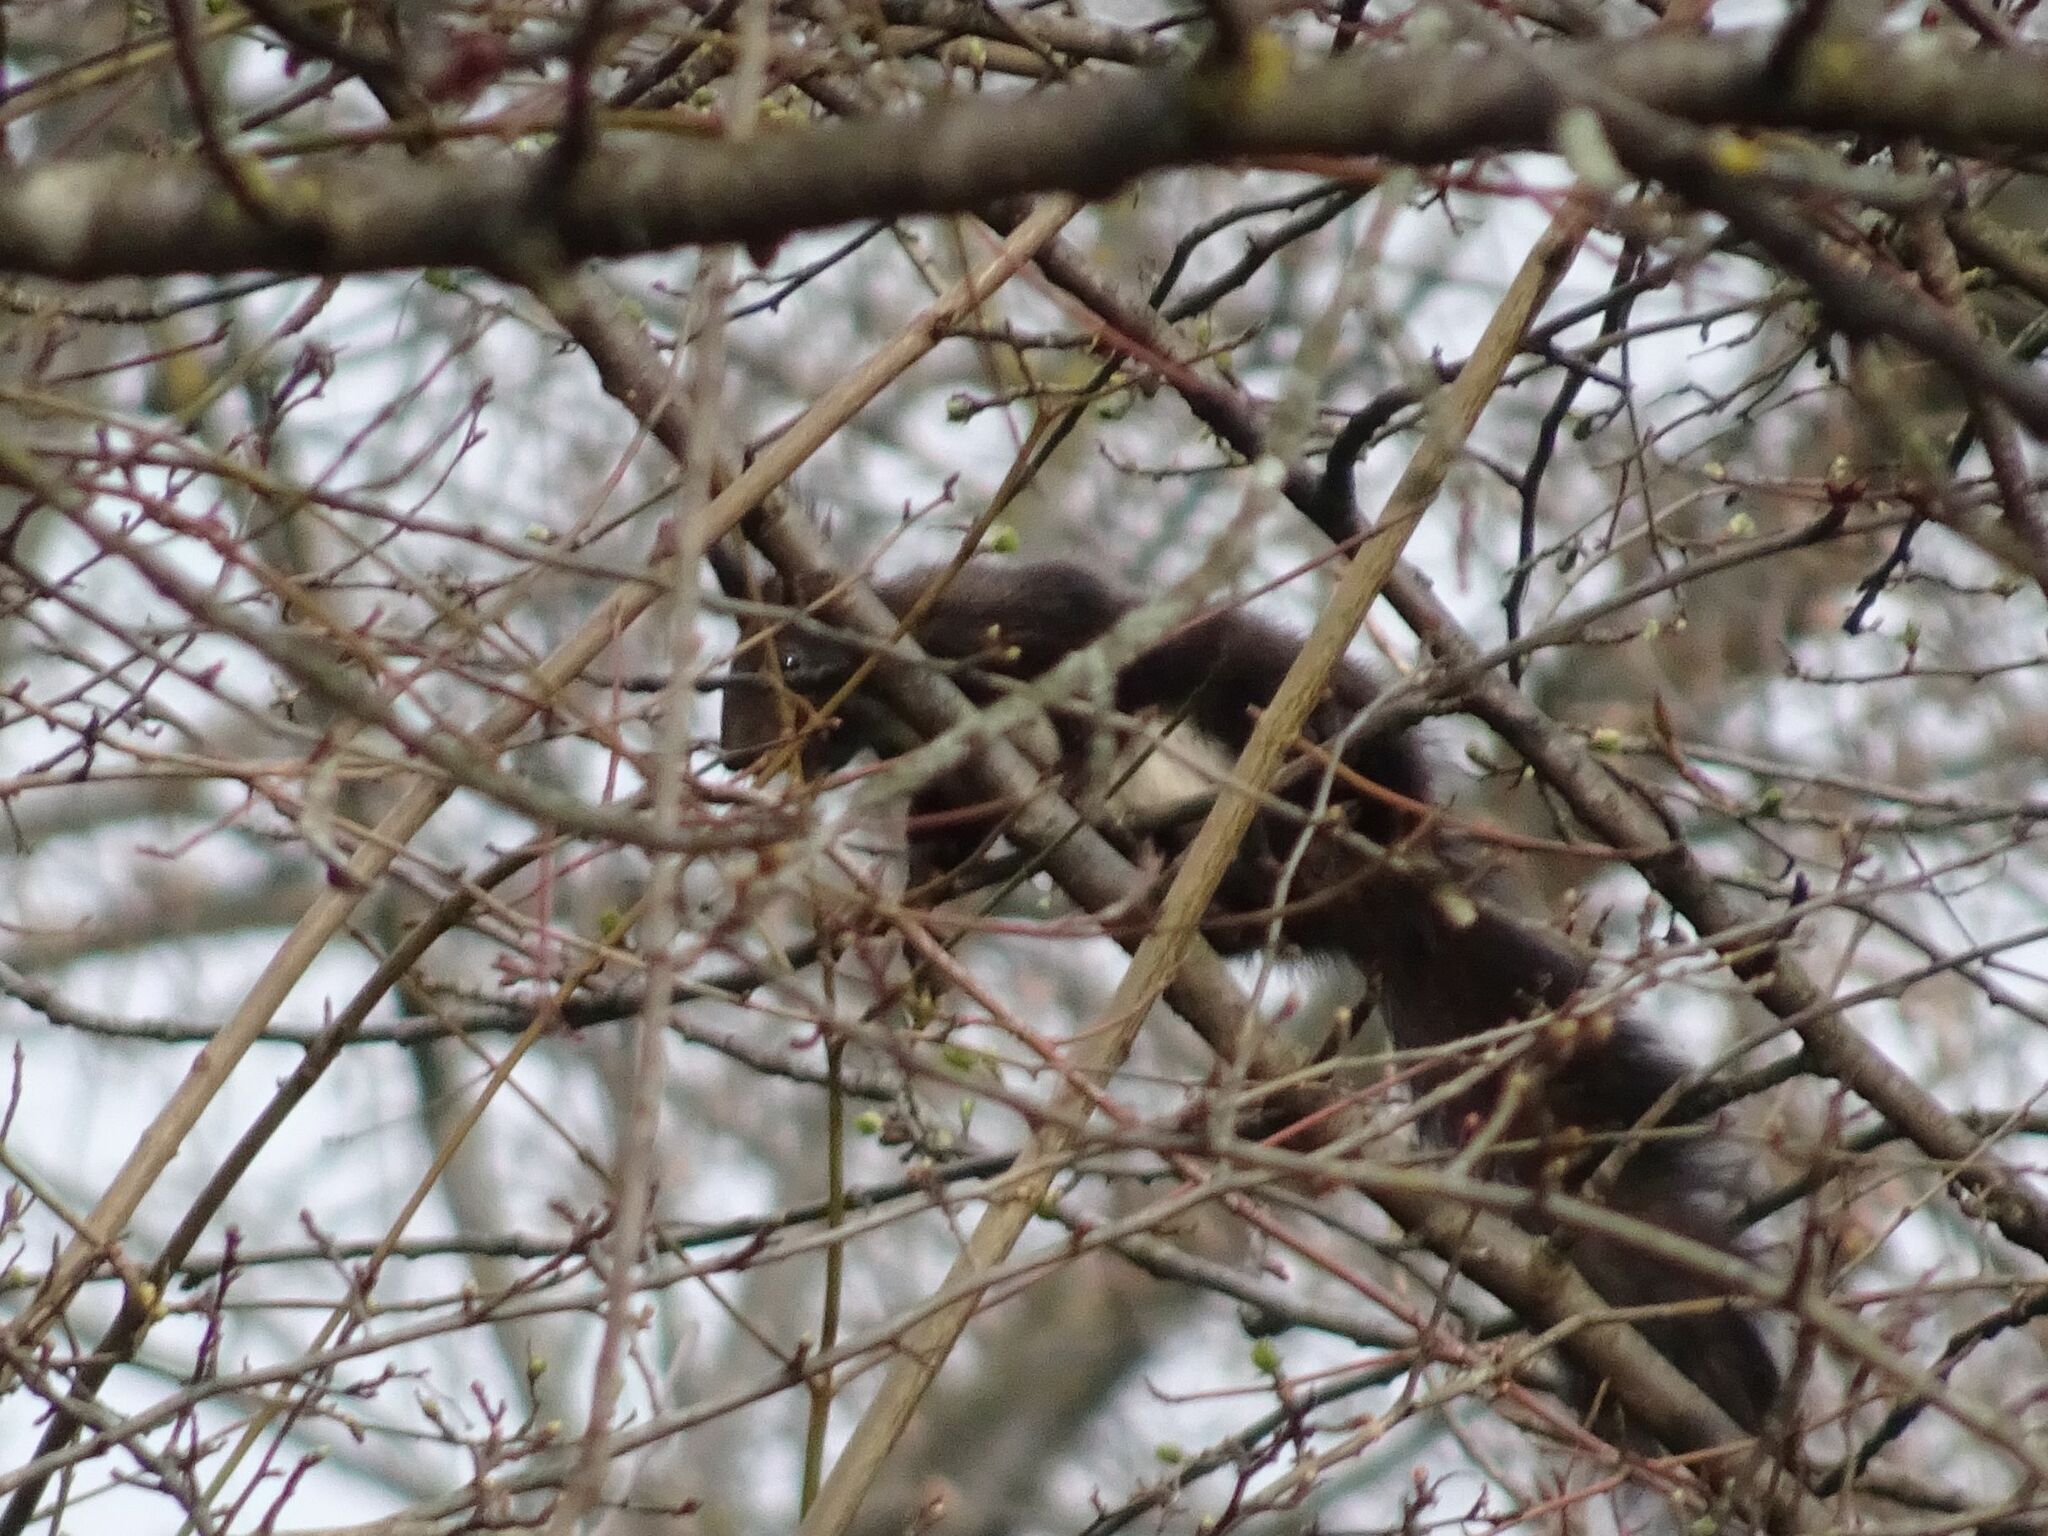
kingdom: Animalia
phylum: Chordata
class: Mammalia
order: Rodentia
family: Sciuridae
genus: Sciurus
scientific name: Sciurus vulgaris
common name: Eurasian red squirrel
